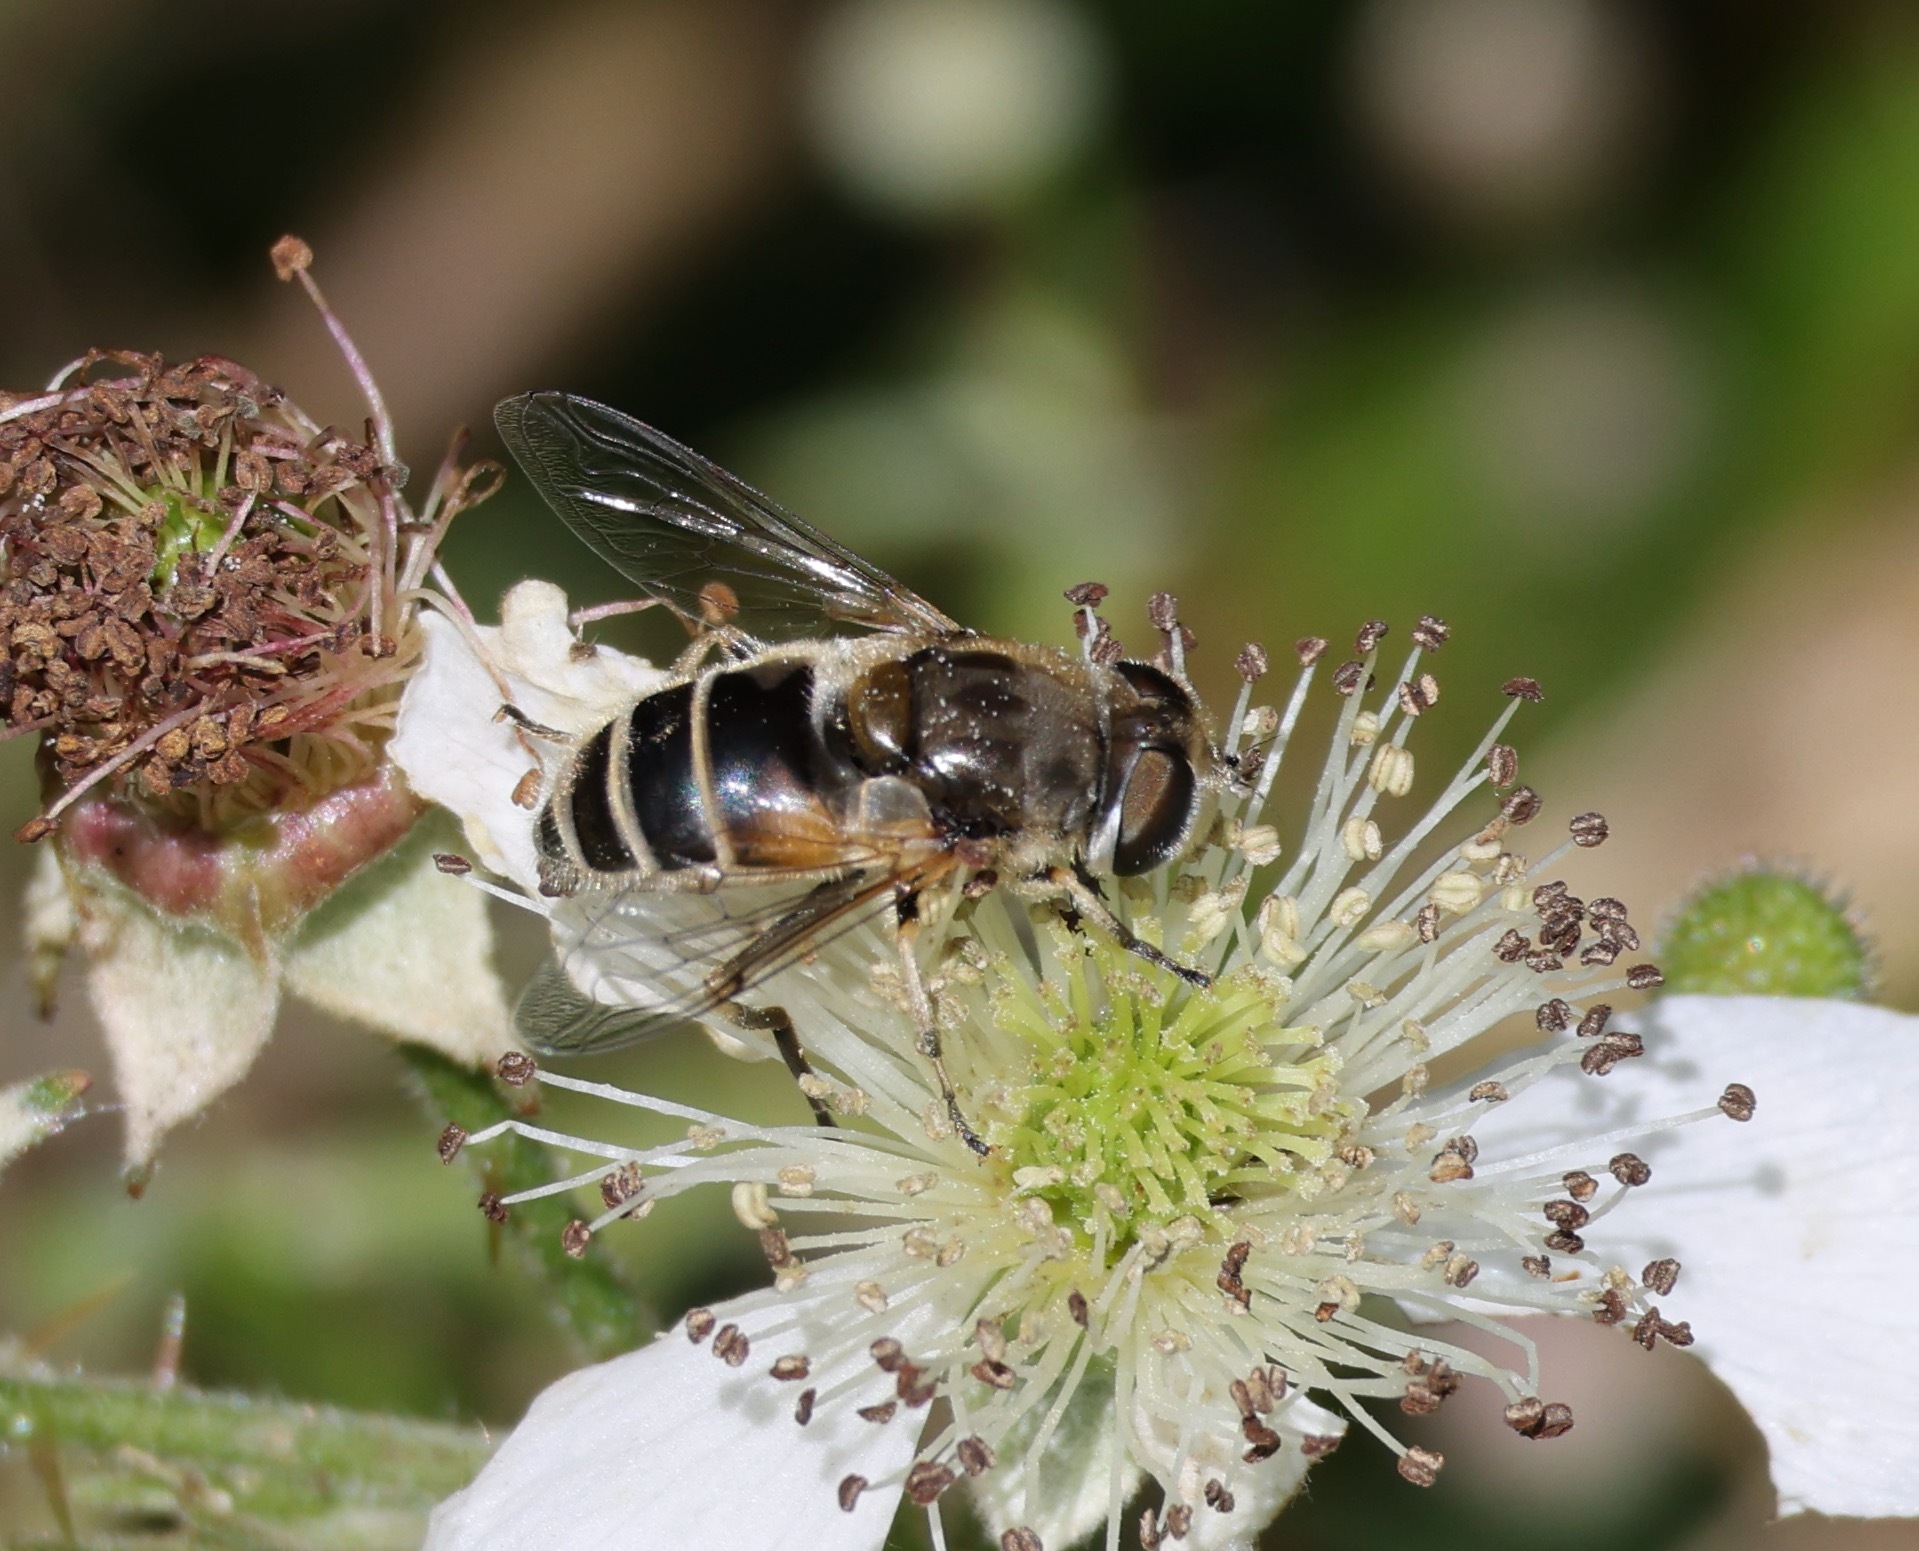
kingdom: Animalia
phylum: Arthropoda
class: Insecta
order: Diptera
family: Syrphidae
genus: Eristalis
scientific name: Eristalis arbustorum
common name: Hover fly
